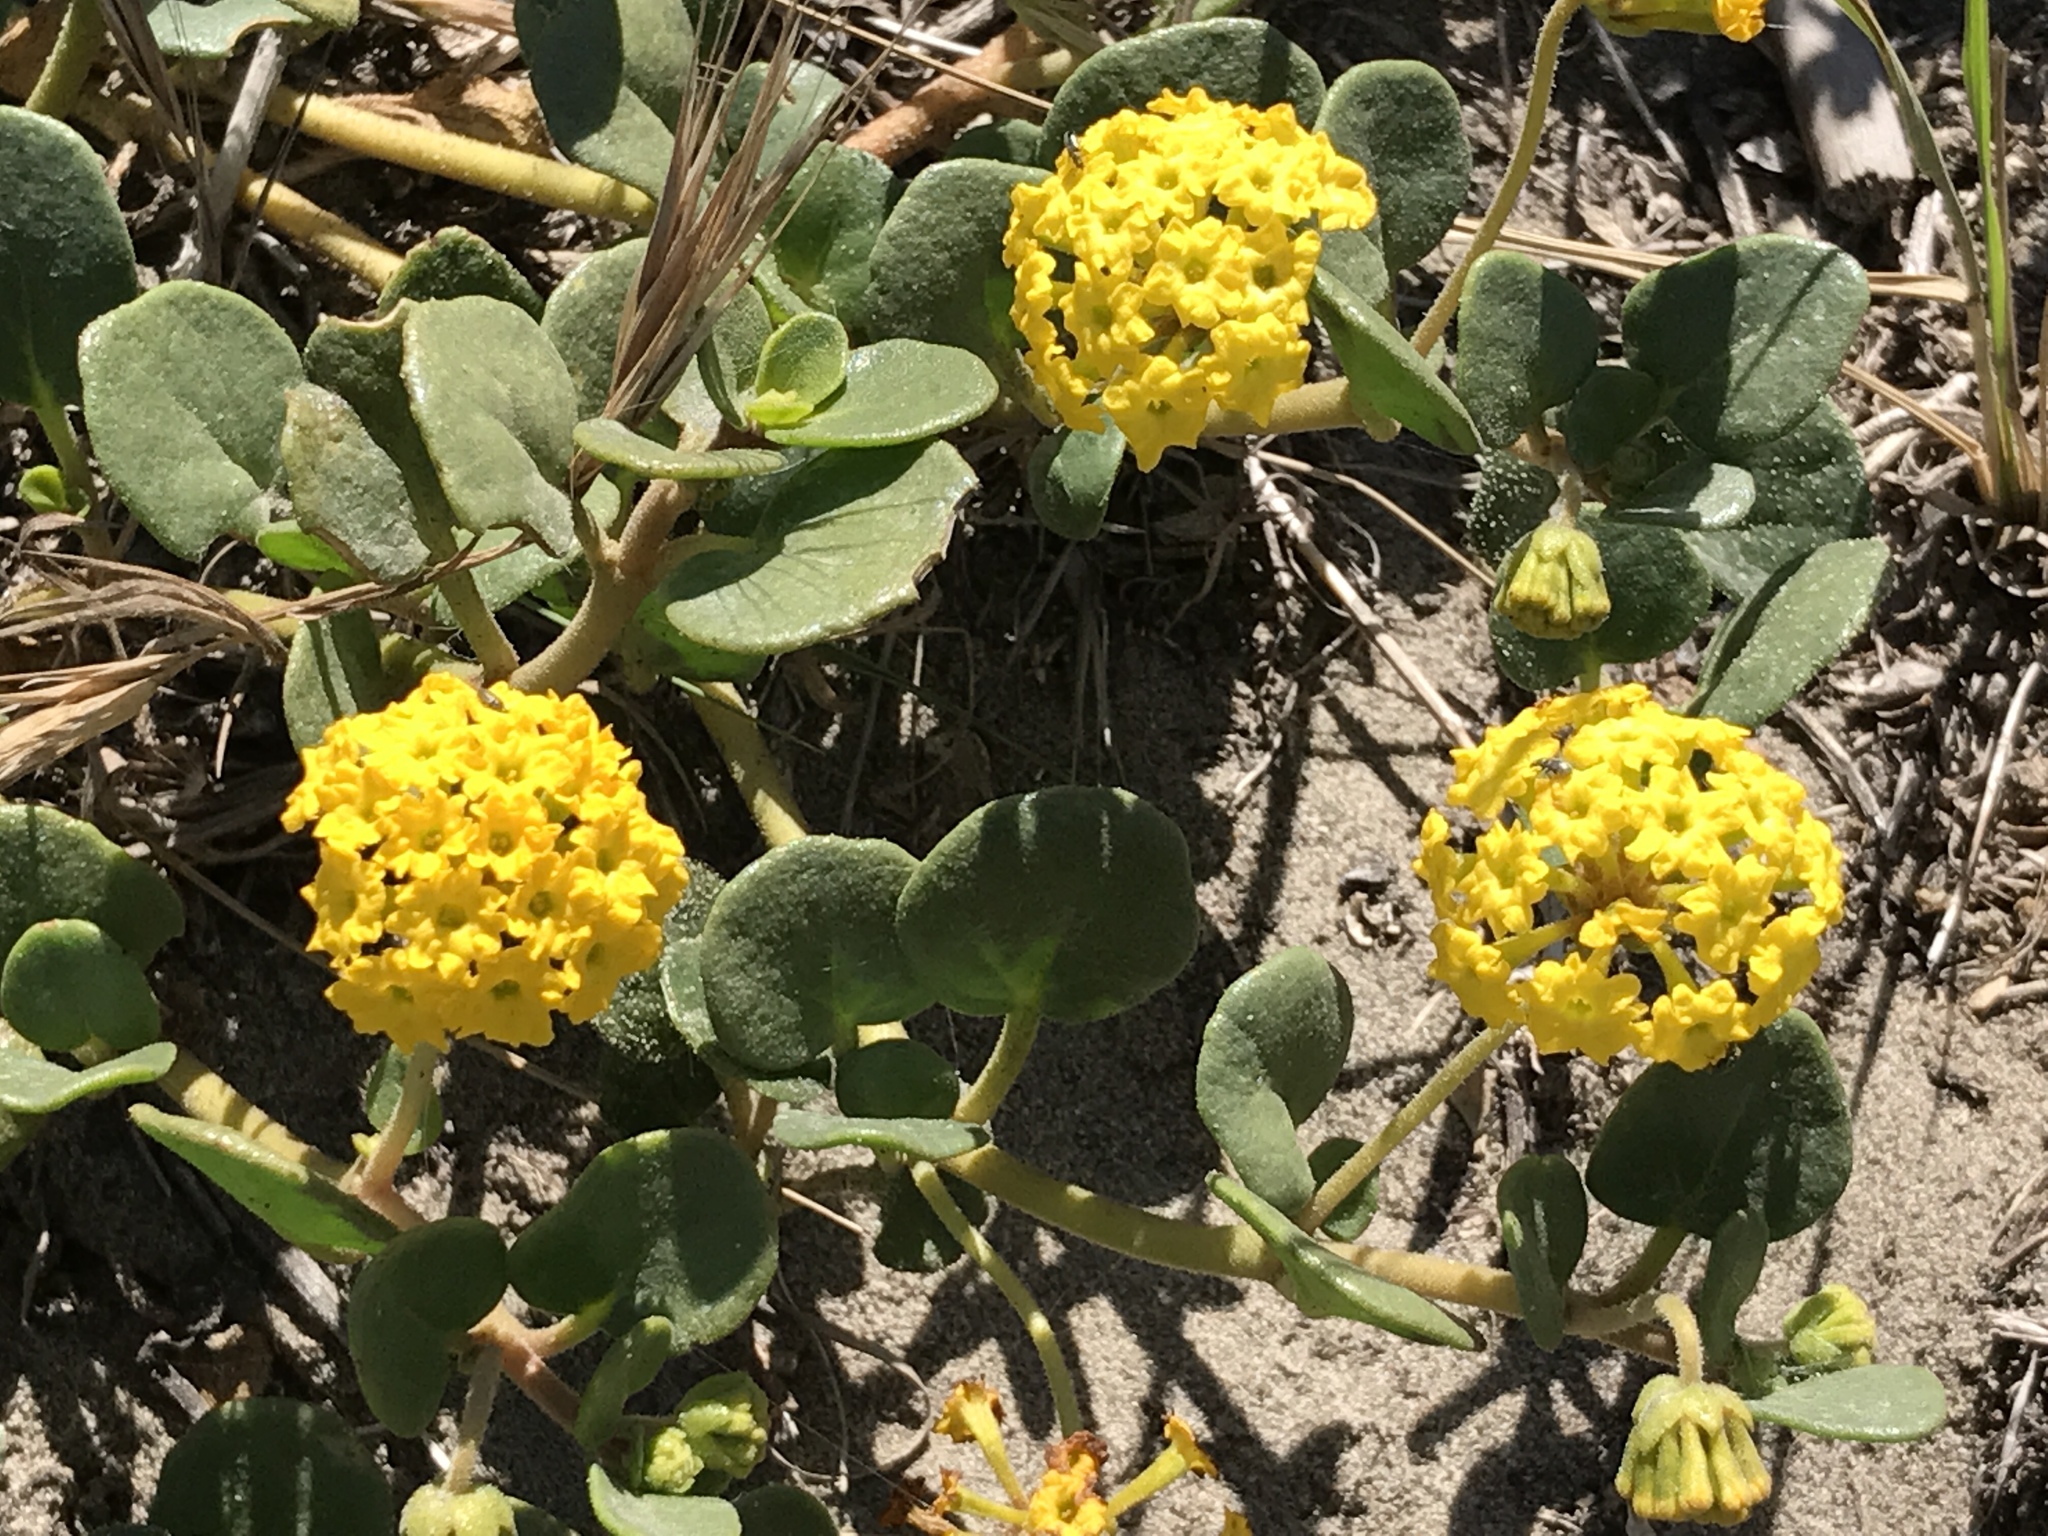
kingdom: Plantae
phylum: Tracheophyta
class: Magnoliopsida
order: Caryophyllales
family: Nyctaginaceae
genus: Abronia
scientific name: Abronia latifolia
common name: Yellow sand-verbena
